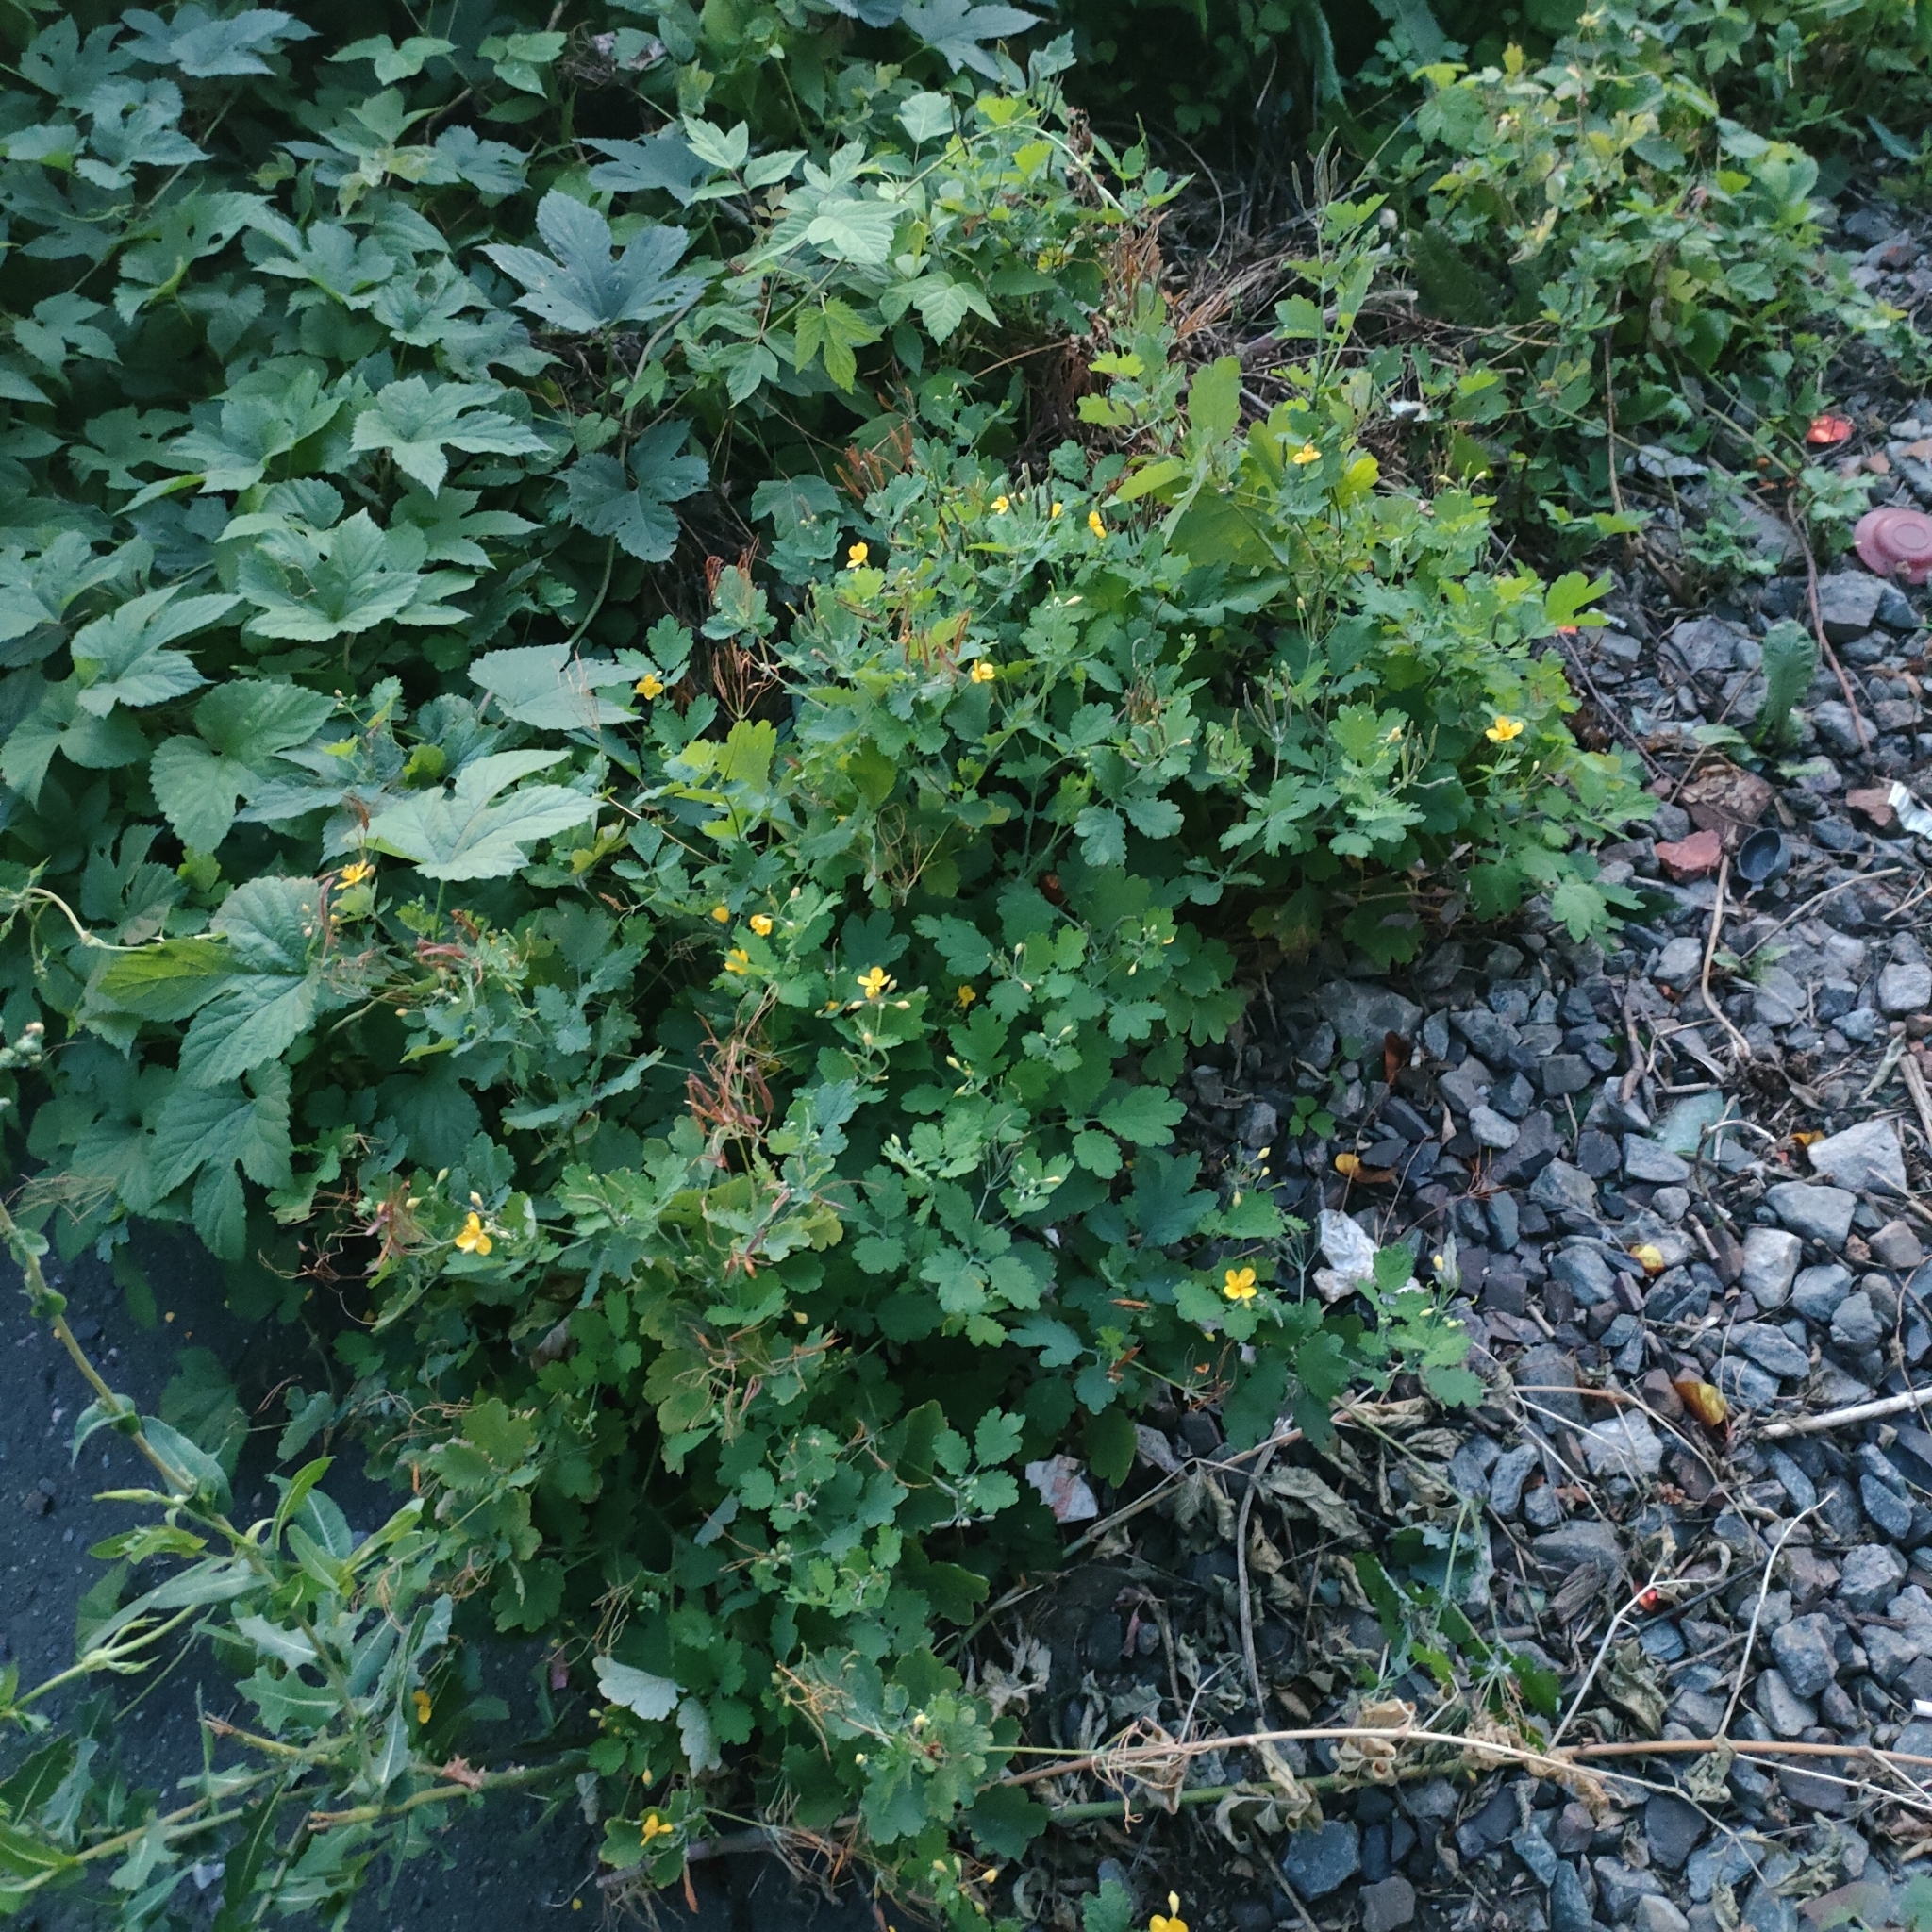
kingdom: Plantae
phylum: Tracheophyta
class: Magnoliopsida
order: Ranunculales
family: Papaveraceae
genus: Chelidonium
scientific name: Chelidonium majus
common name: Greater celandine
